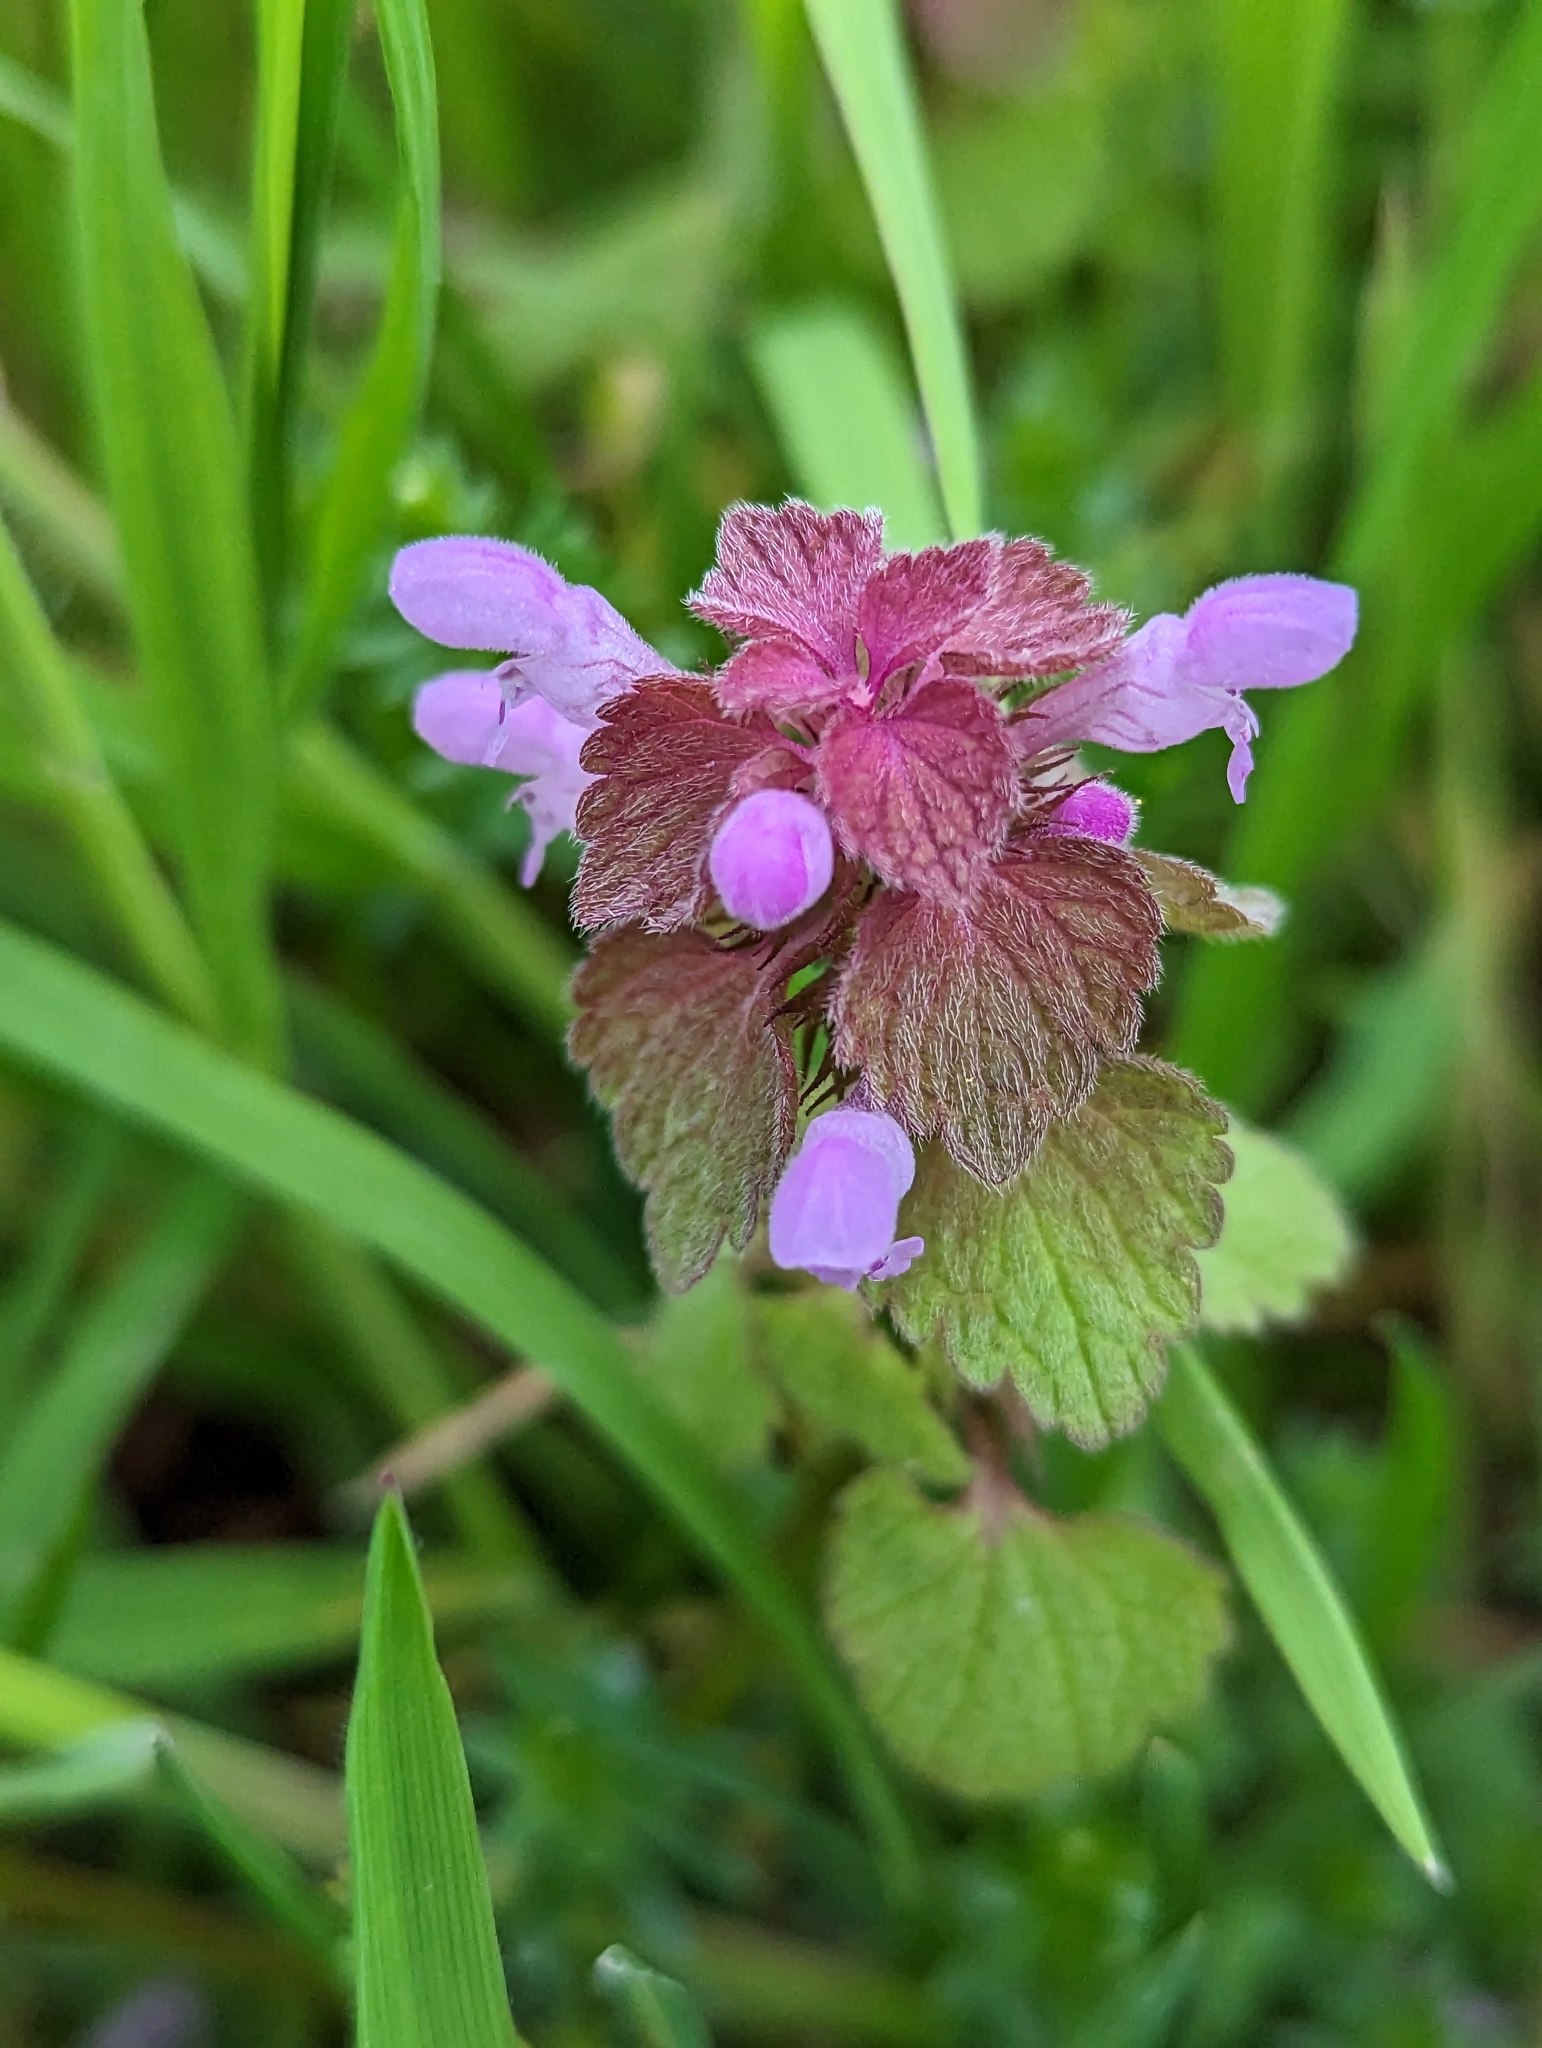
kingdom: Plantae
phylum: Tracheophyta
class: Magnoliopsida
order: Lamiales
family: Lamiaceae
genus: Lamium
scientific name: Lamium purpureum
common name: Red dead-nettle
